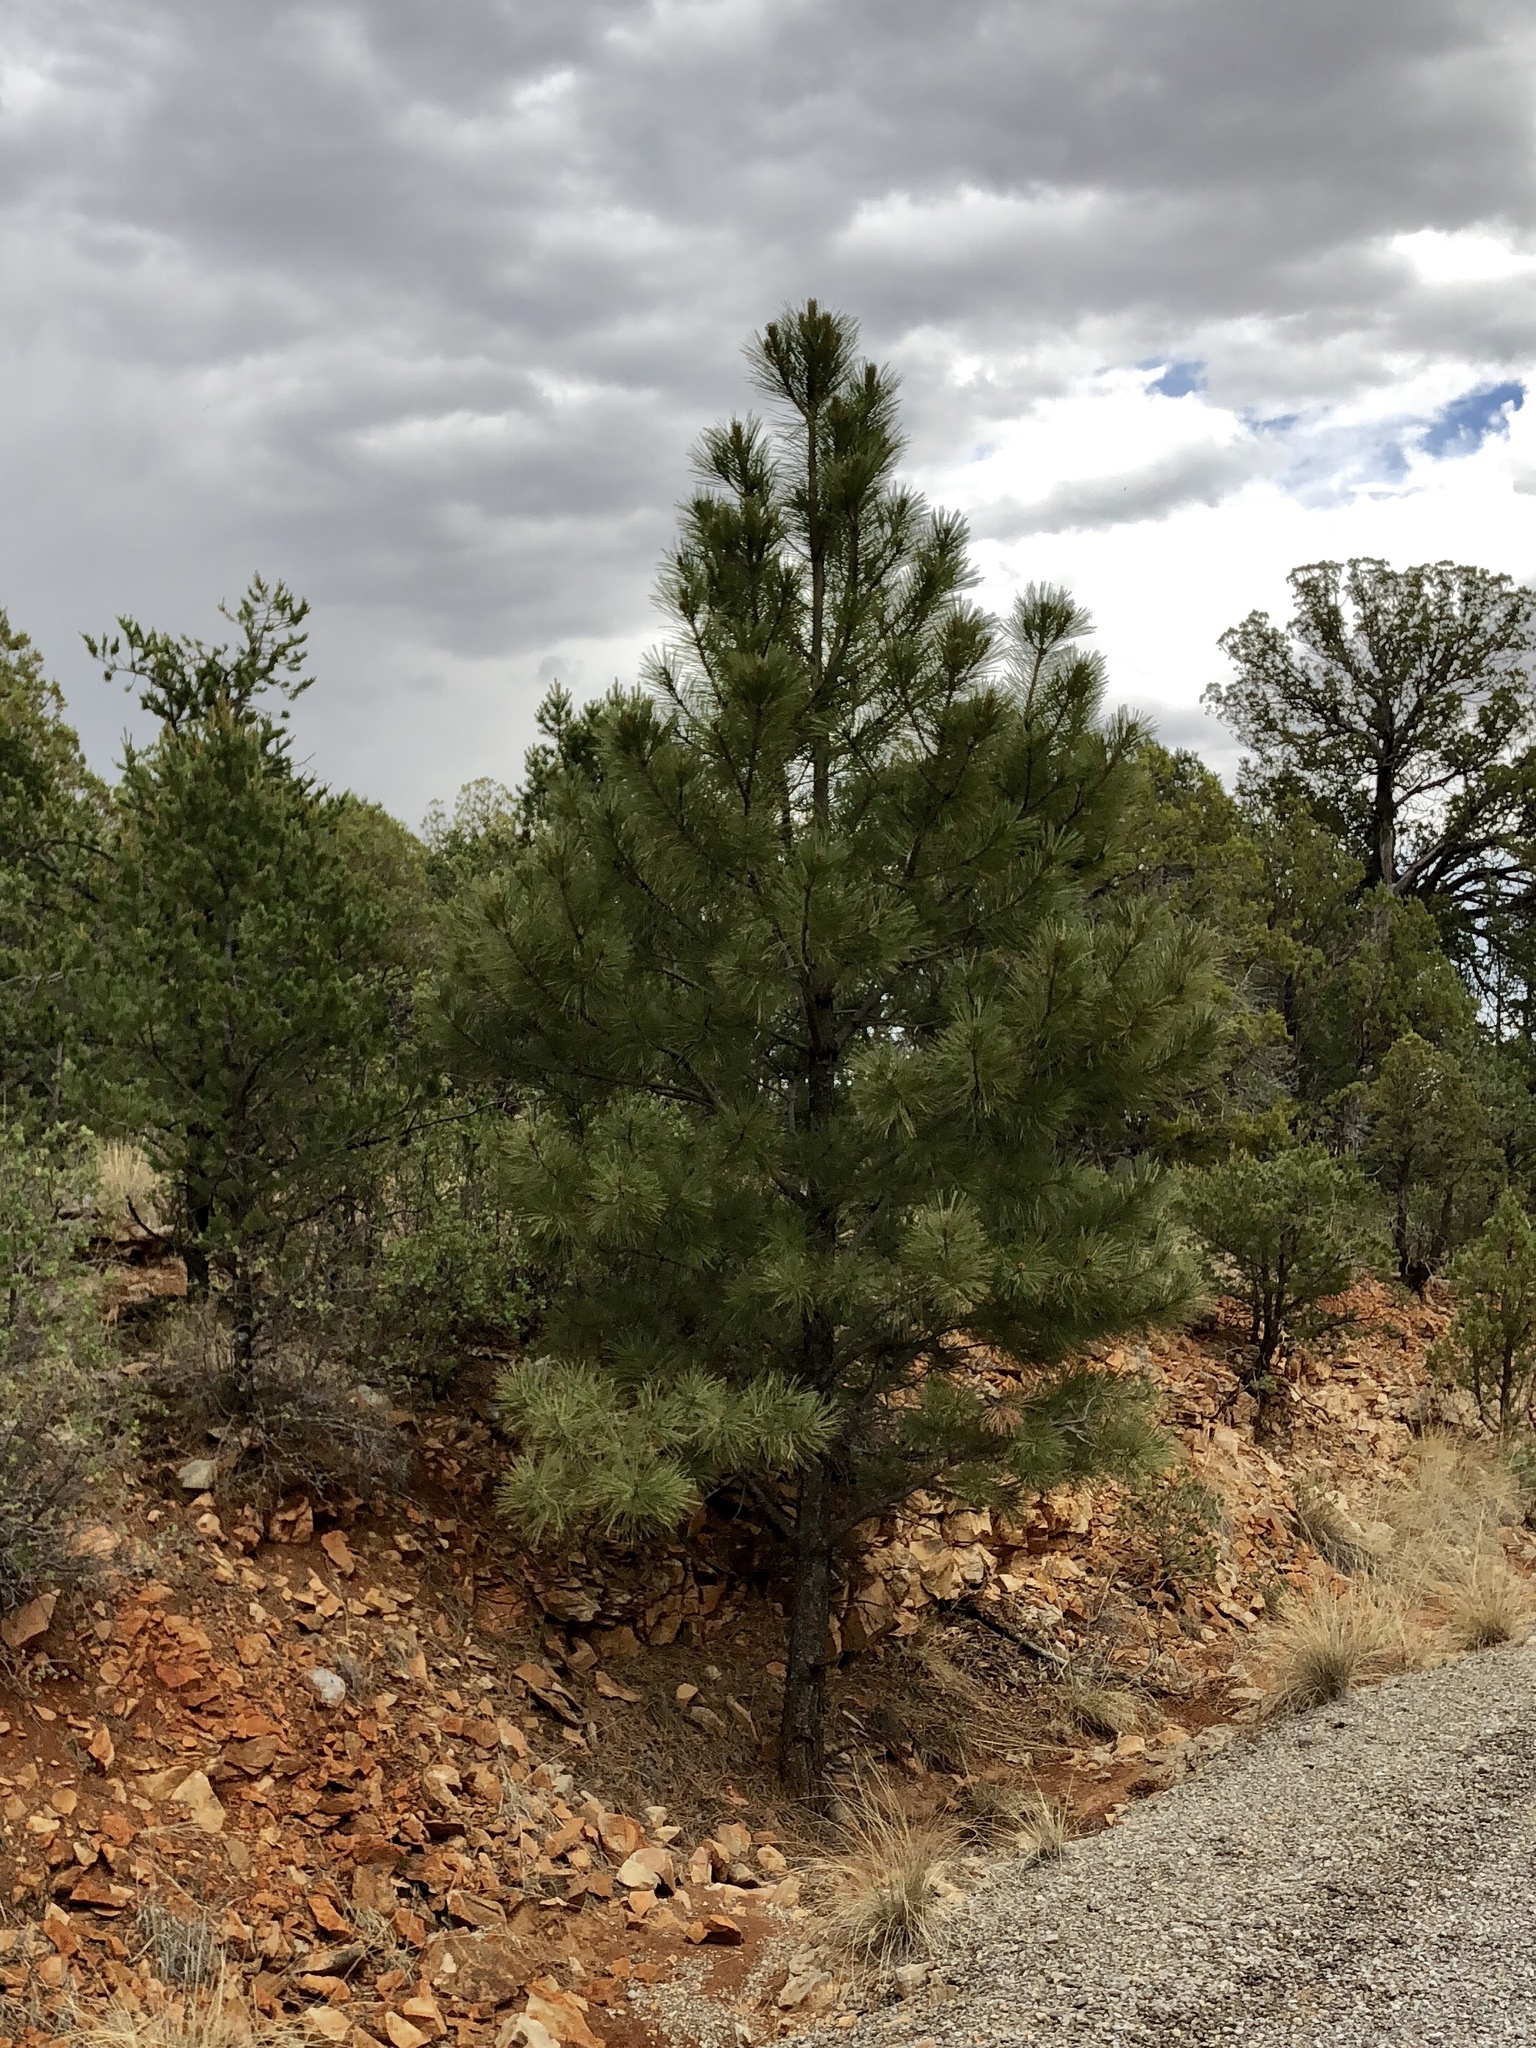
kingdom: Plantae
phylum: Tracheophyta
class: Pinopsida
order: Pinales
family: Pinaceae
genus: Pinus
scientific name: Pinus ponderosa
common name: Western yellow-pine
